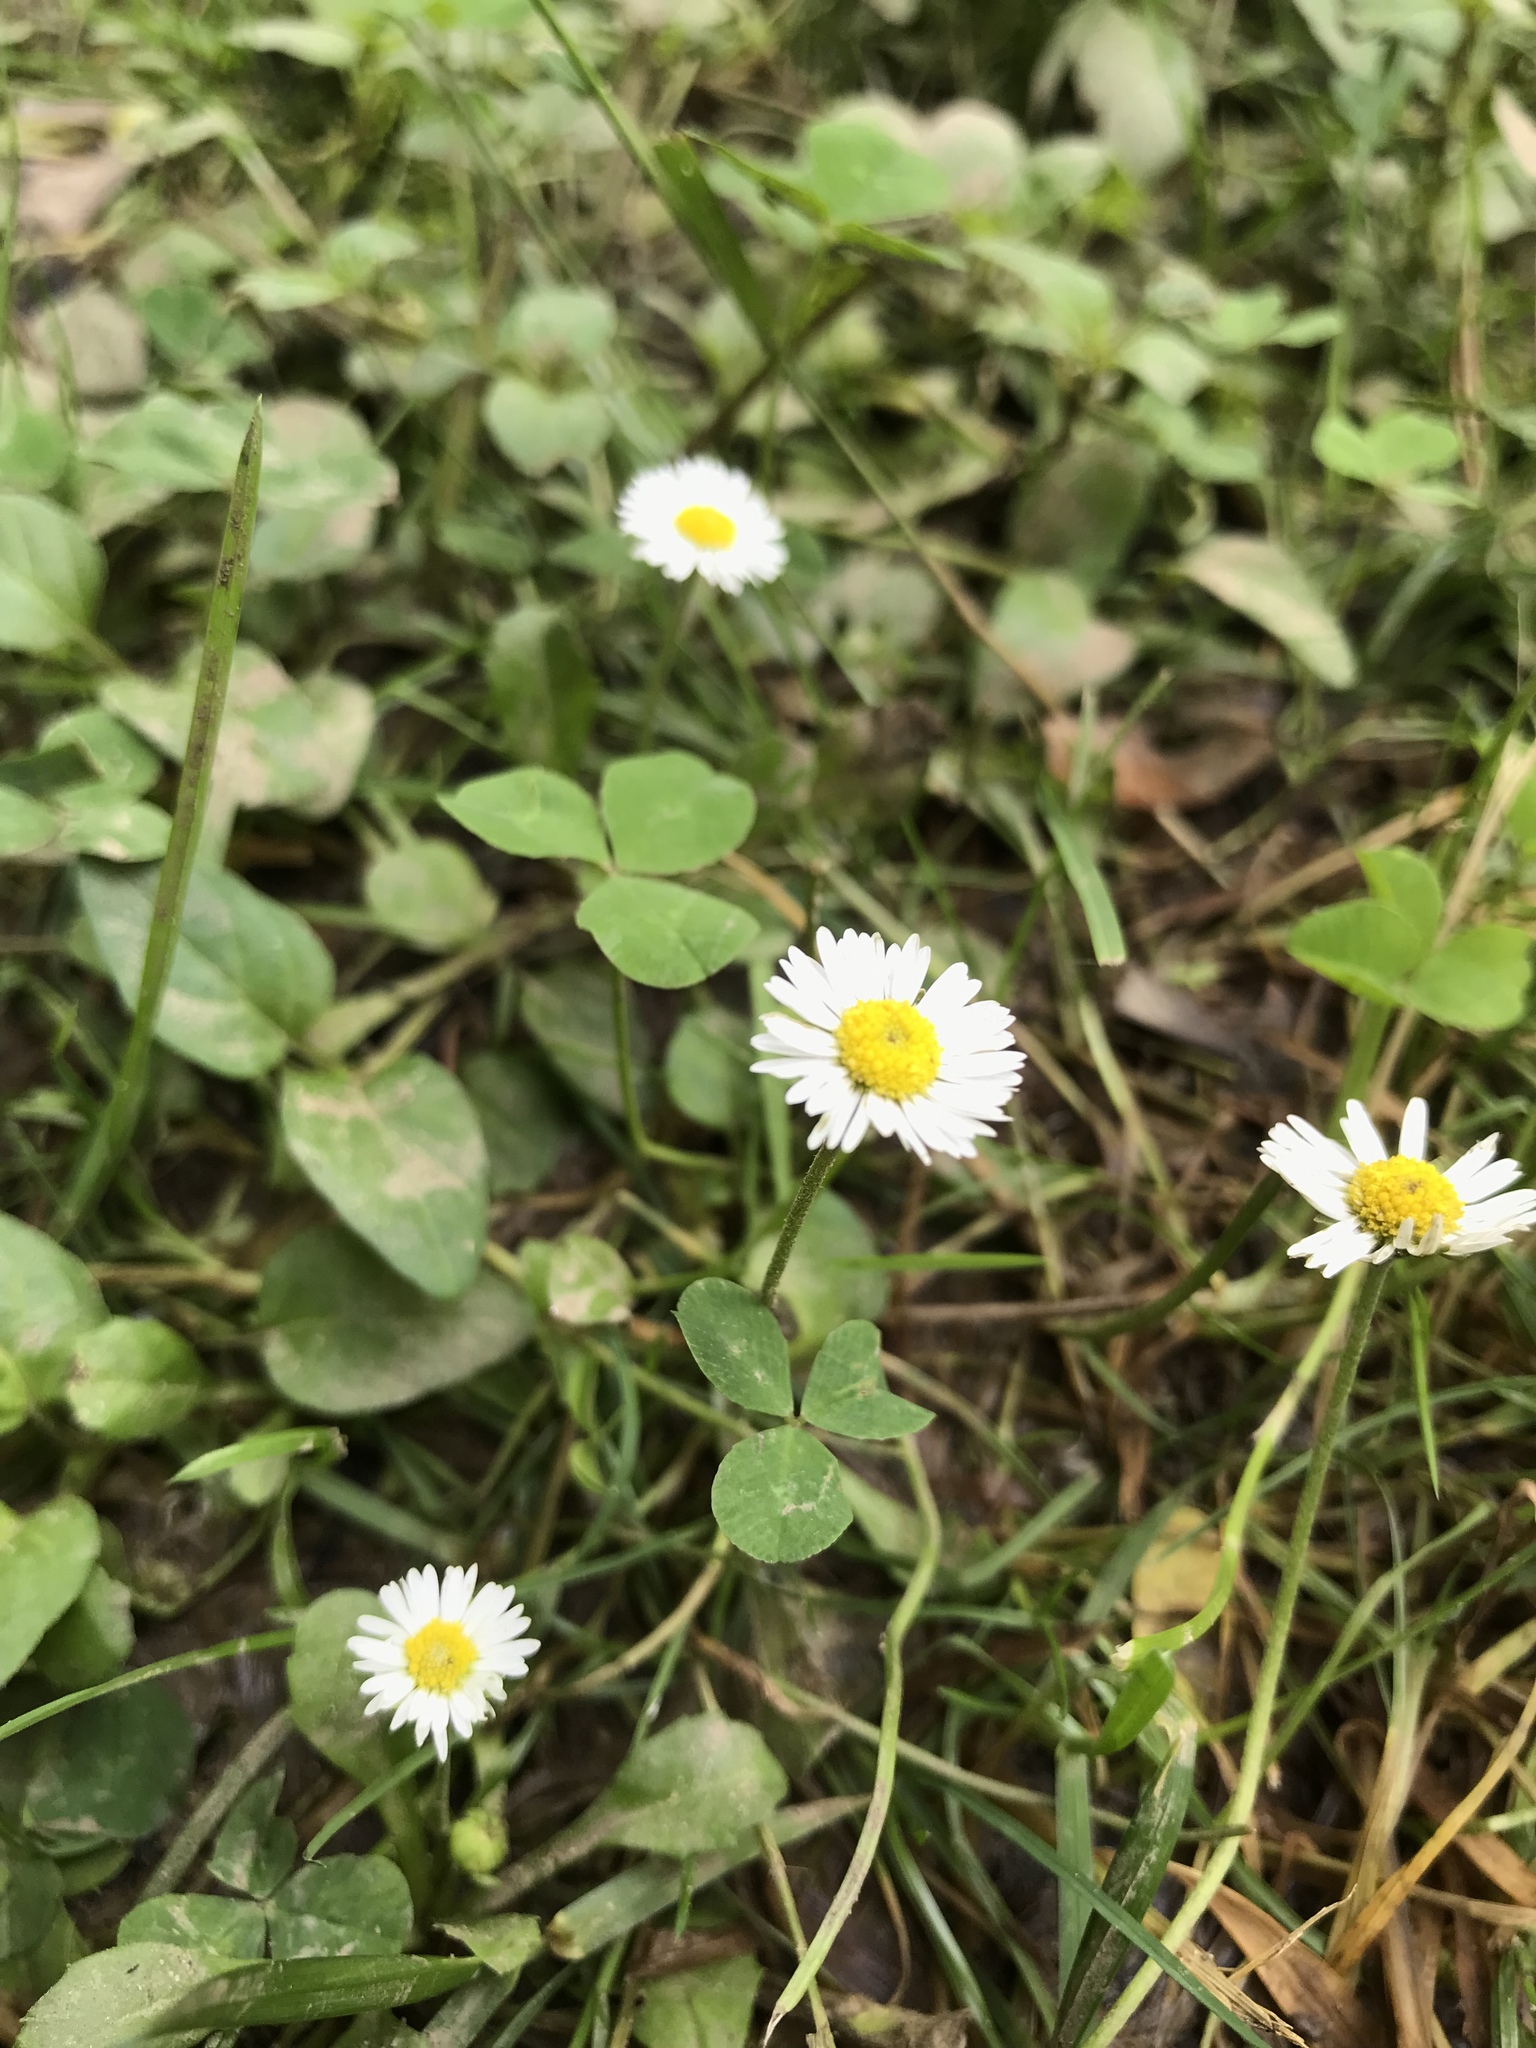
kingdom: Plantae
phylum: Tracheophyta
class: Magnoliopsida
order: Asterales
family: Asteraceae
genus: Bellis
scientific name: Bellis perennis
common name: Lawndaisy
